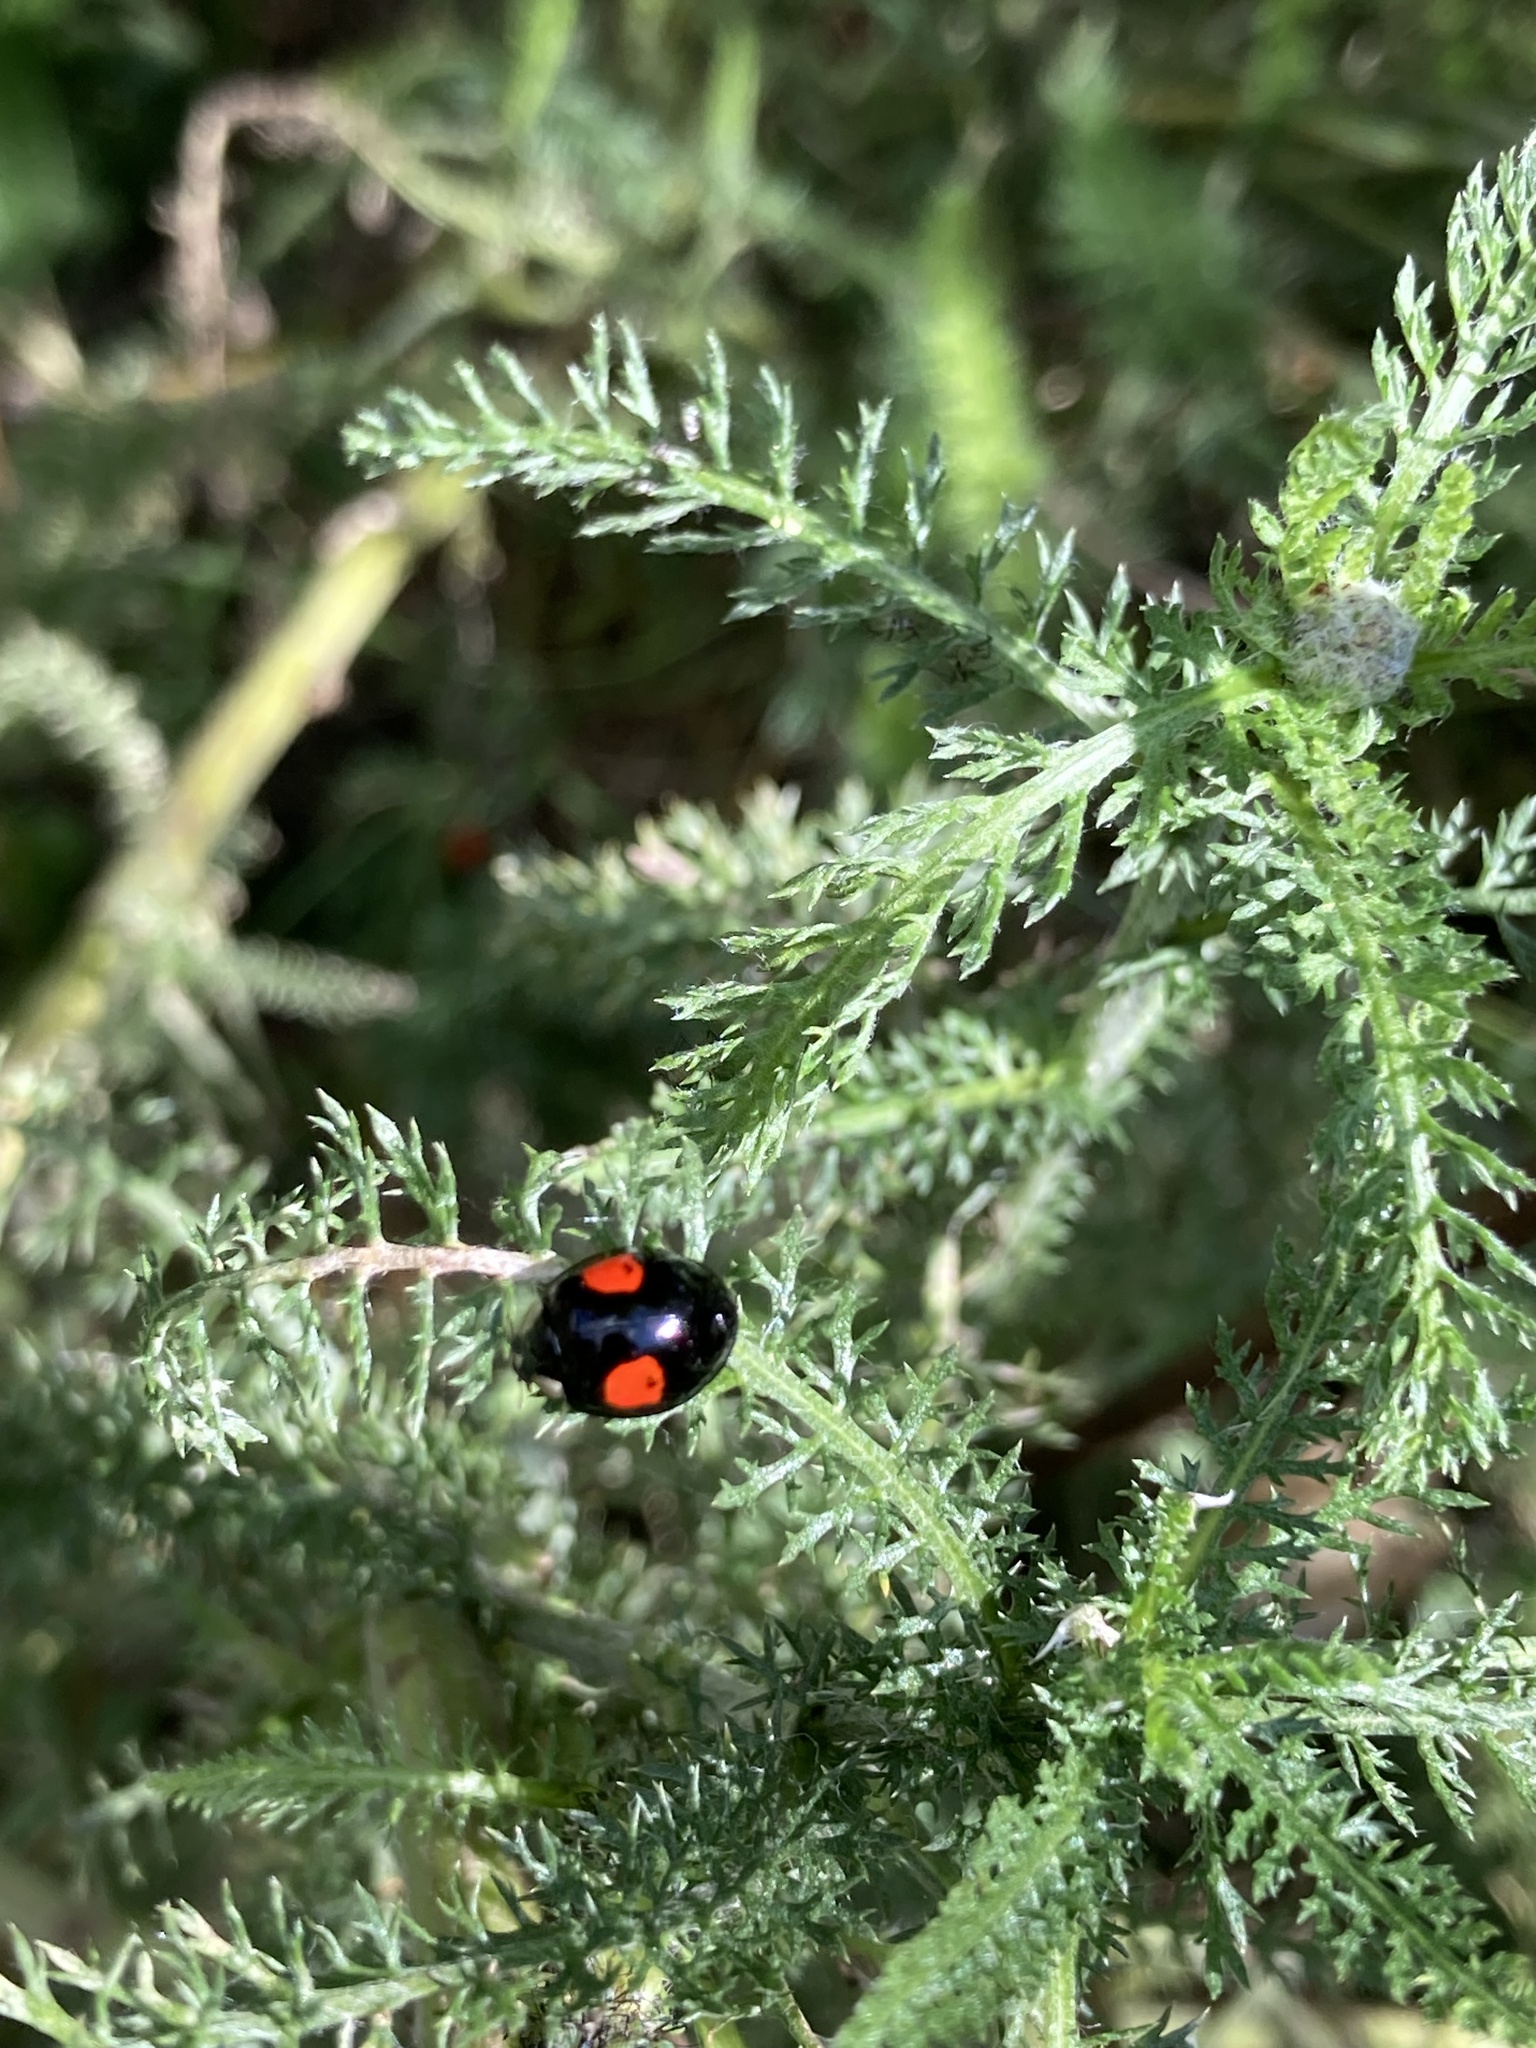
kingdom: Animalia
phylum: Arthropoda
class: Insecta
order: Coleoptera
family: Coccinellidae
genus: Harmonia
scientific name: Harmonia axyridis
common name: Harlequin ladybird
